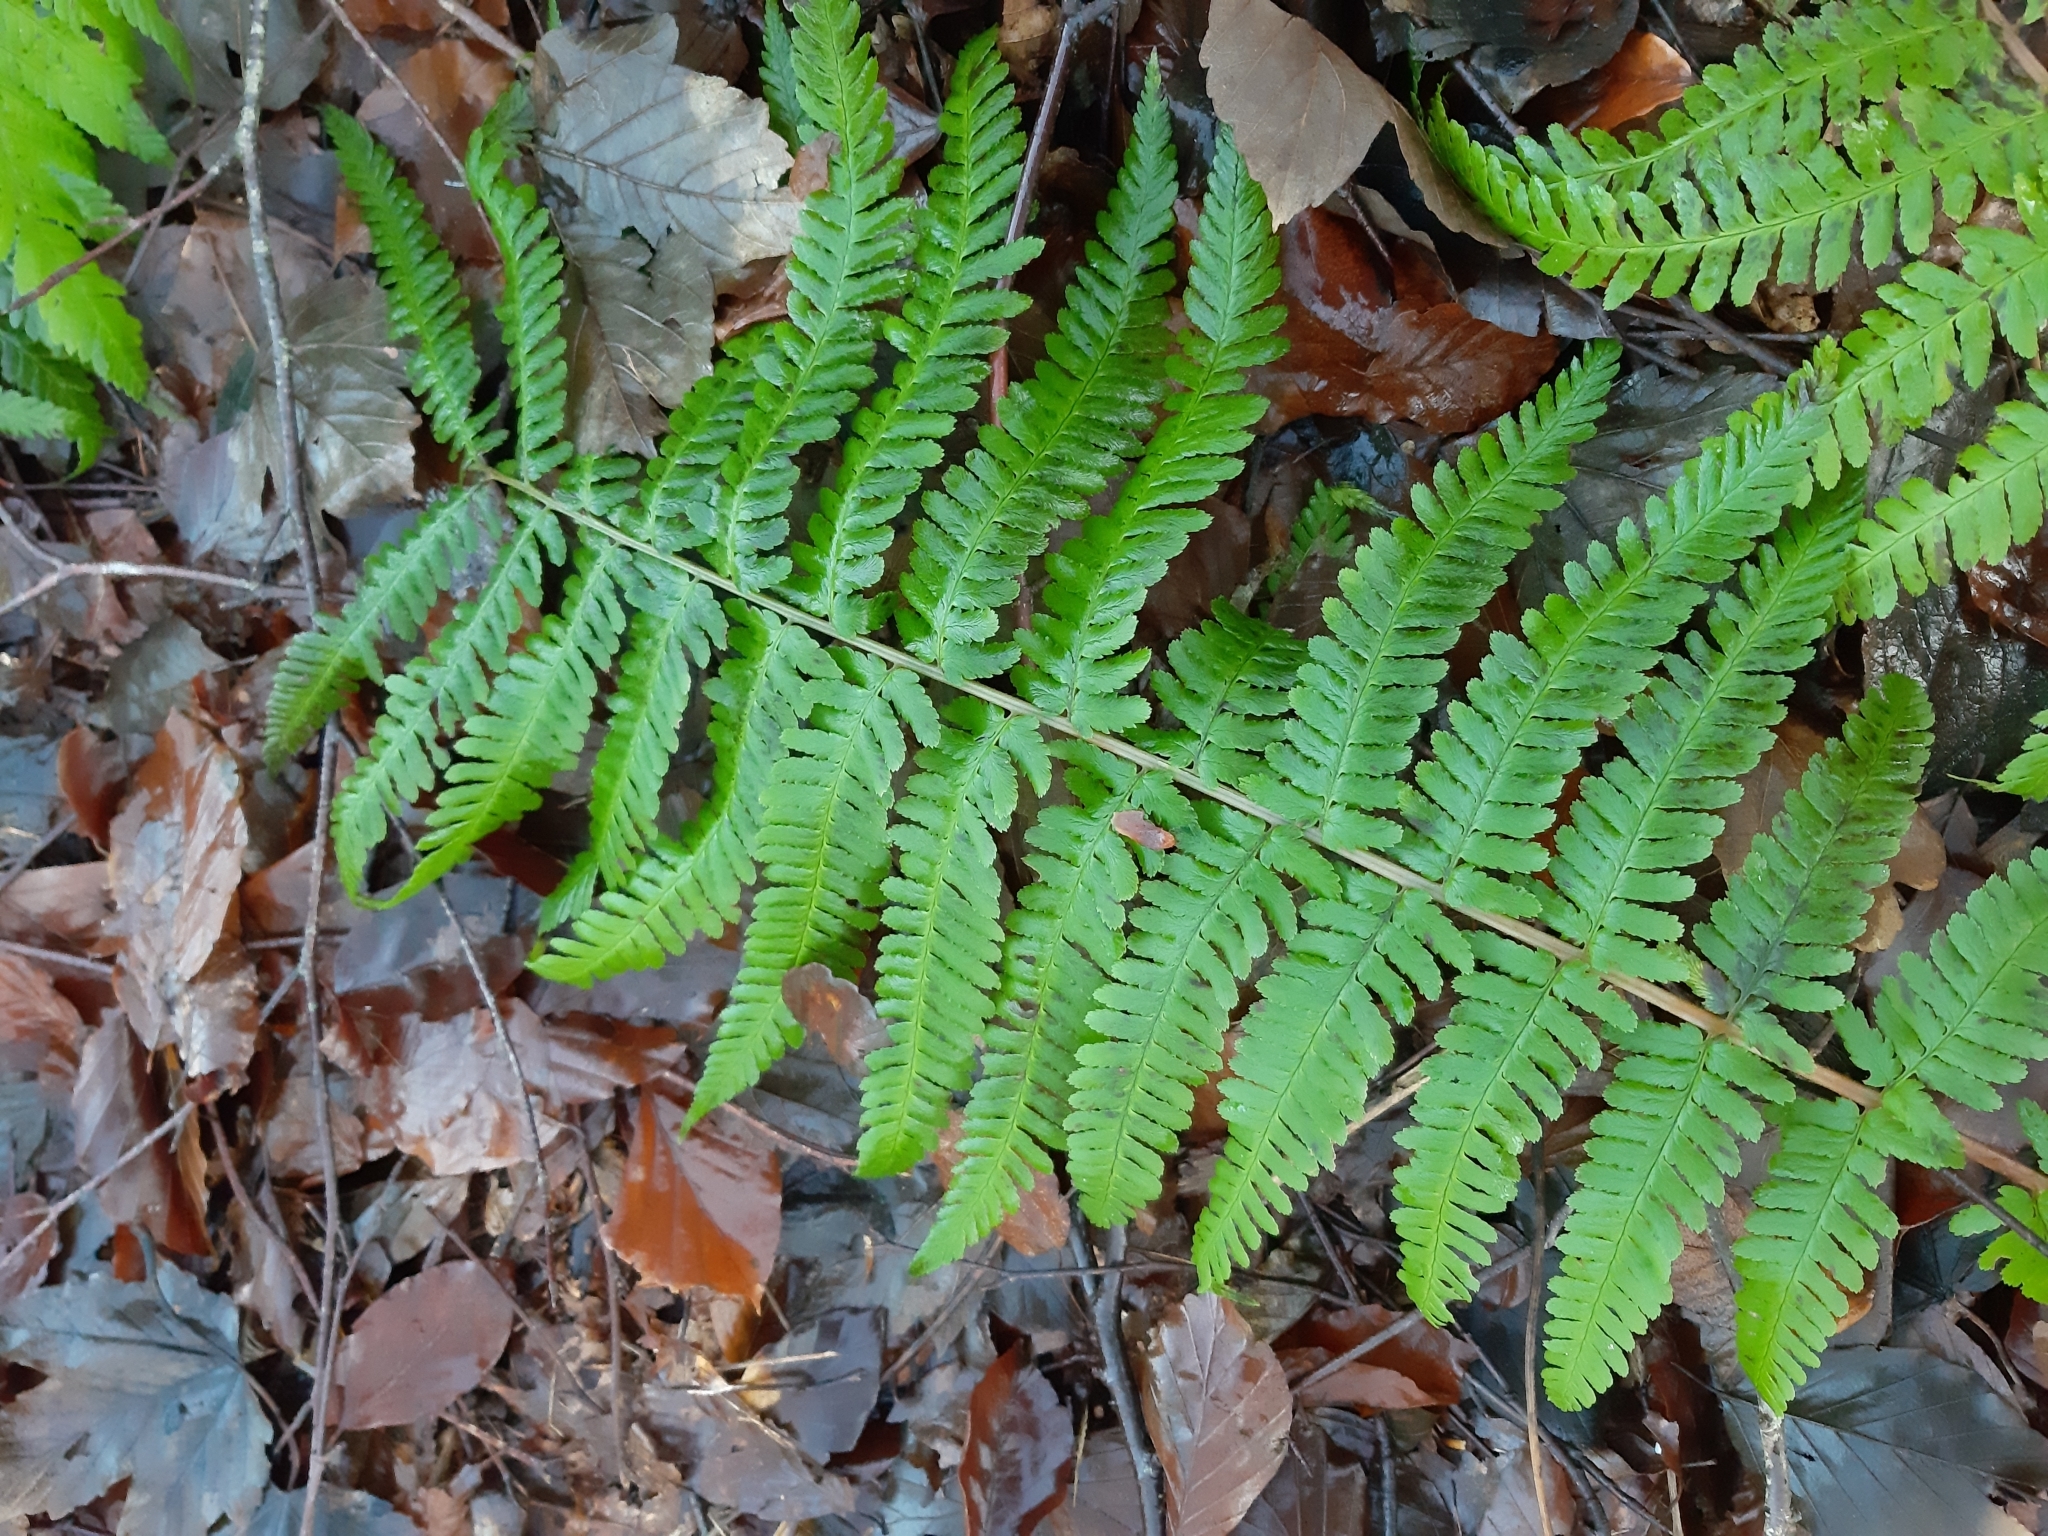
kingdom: Plantae
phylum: Tracheophyta
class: Polypodiopsida
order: Polypodiales
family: Dryopteridaceae
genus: Dryopteris
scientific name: Dryopteris filix-mas
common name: Male fern
